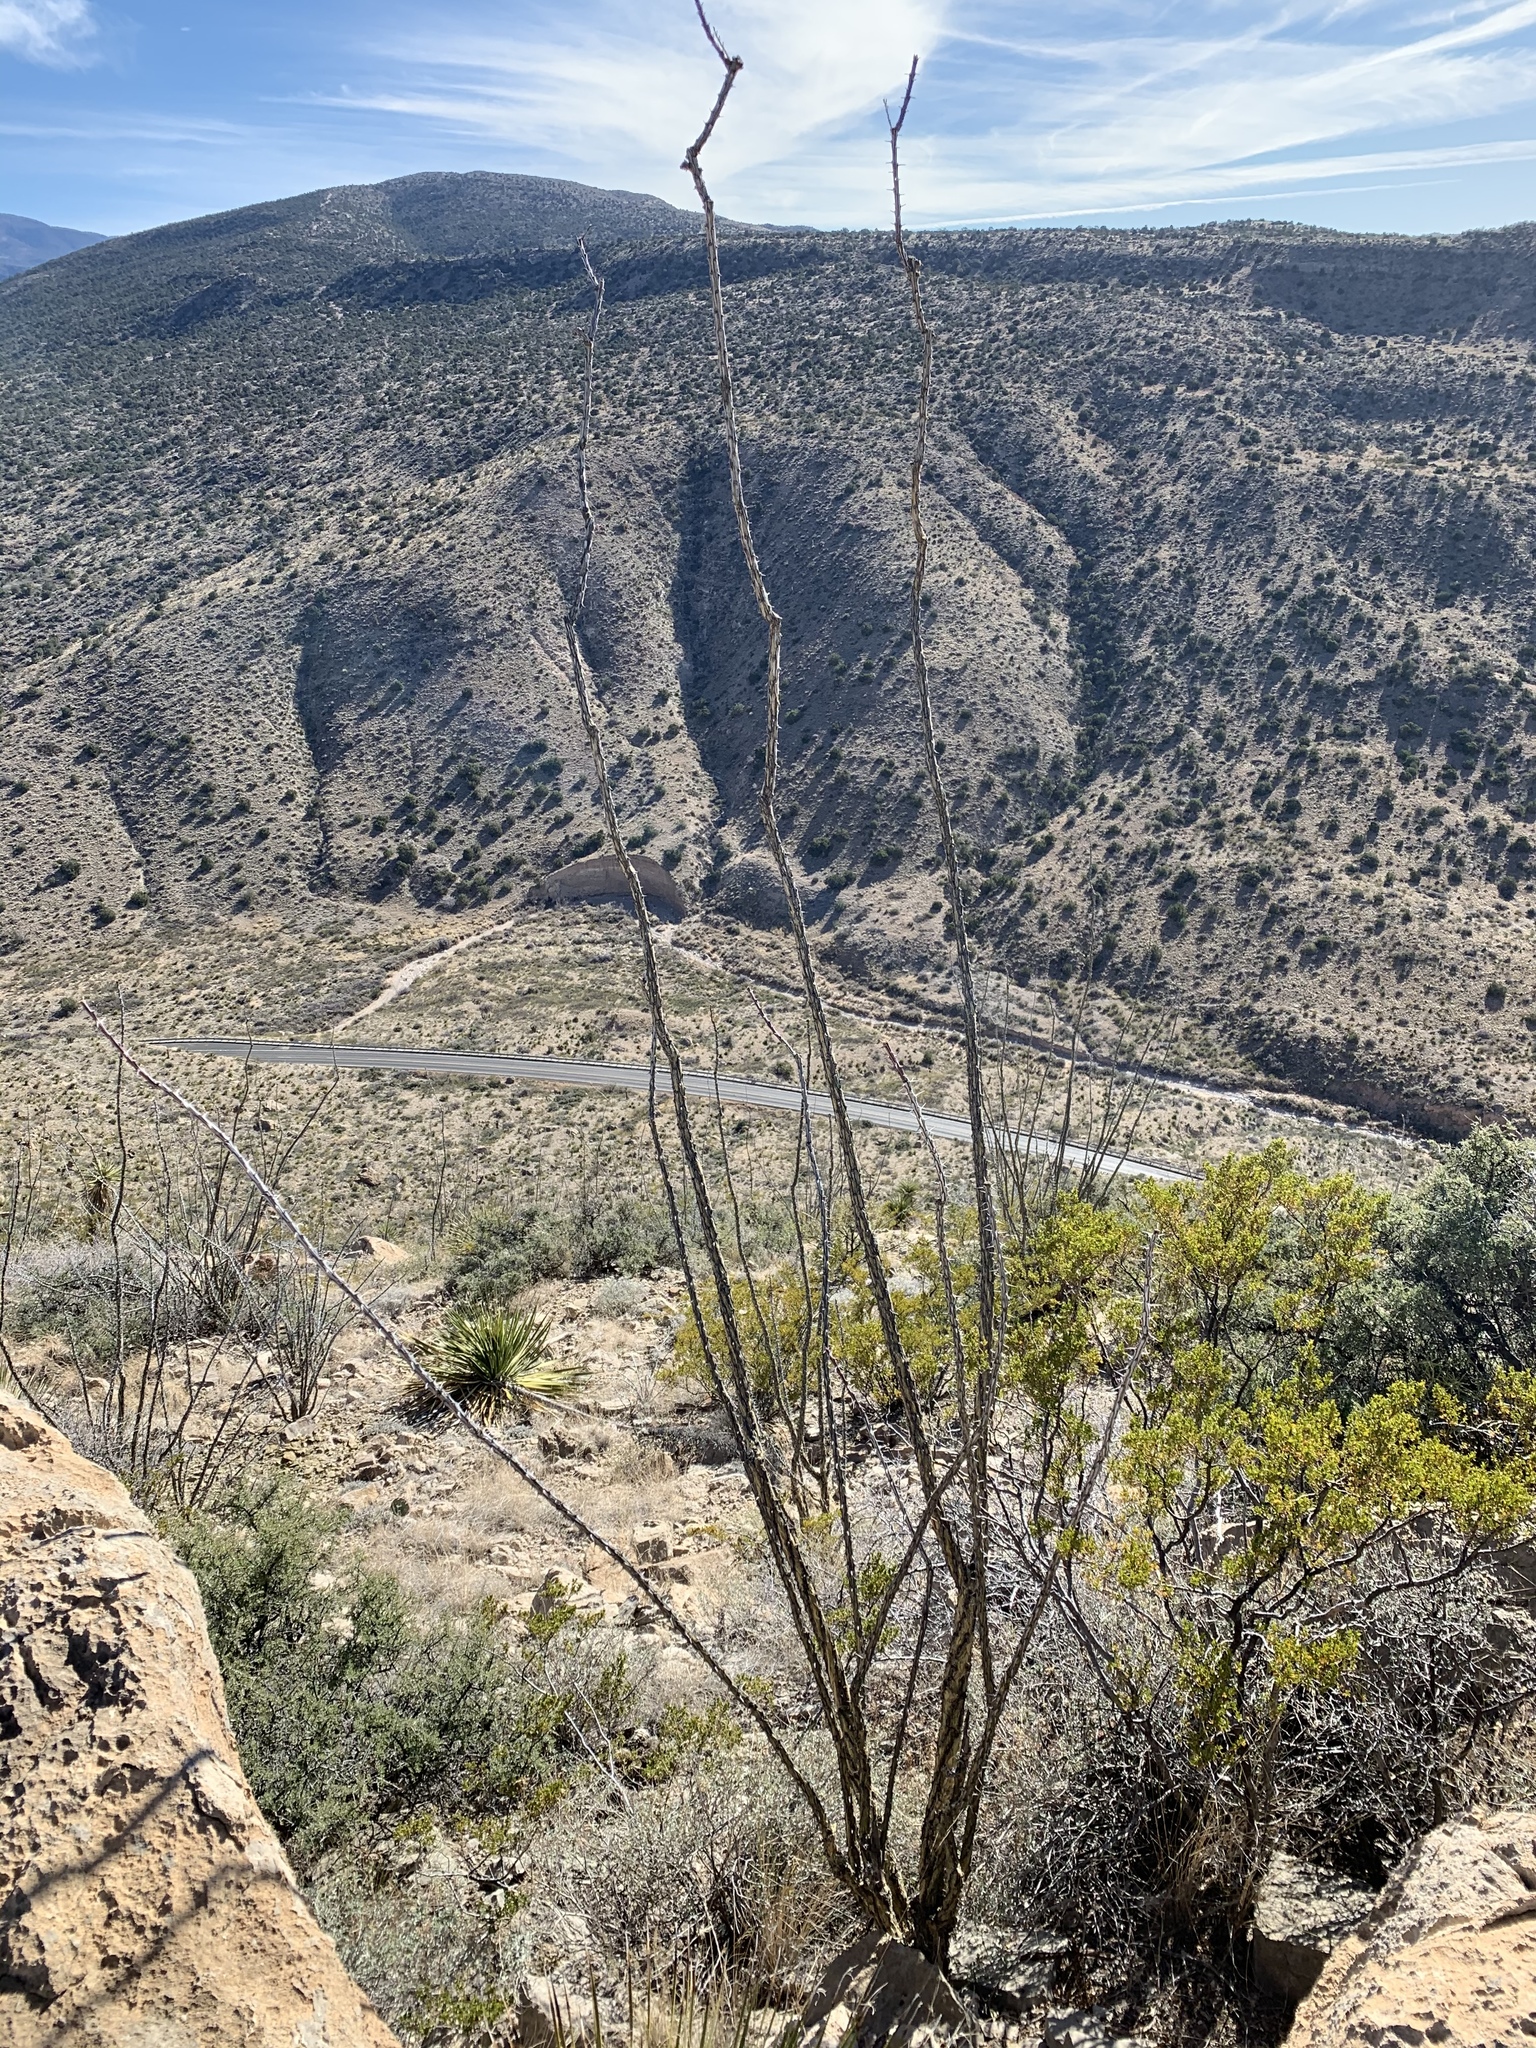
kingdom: Plantae
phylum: Tracheophyta
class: Magnoliopsida
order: Ericales
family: Fouquieriaceae
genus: Fouquieria
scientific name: Fouquieria splendens
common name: Vine-cactus
